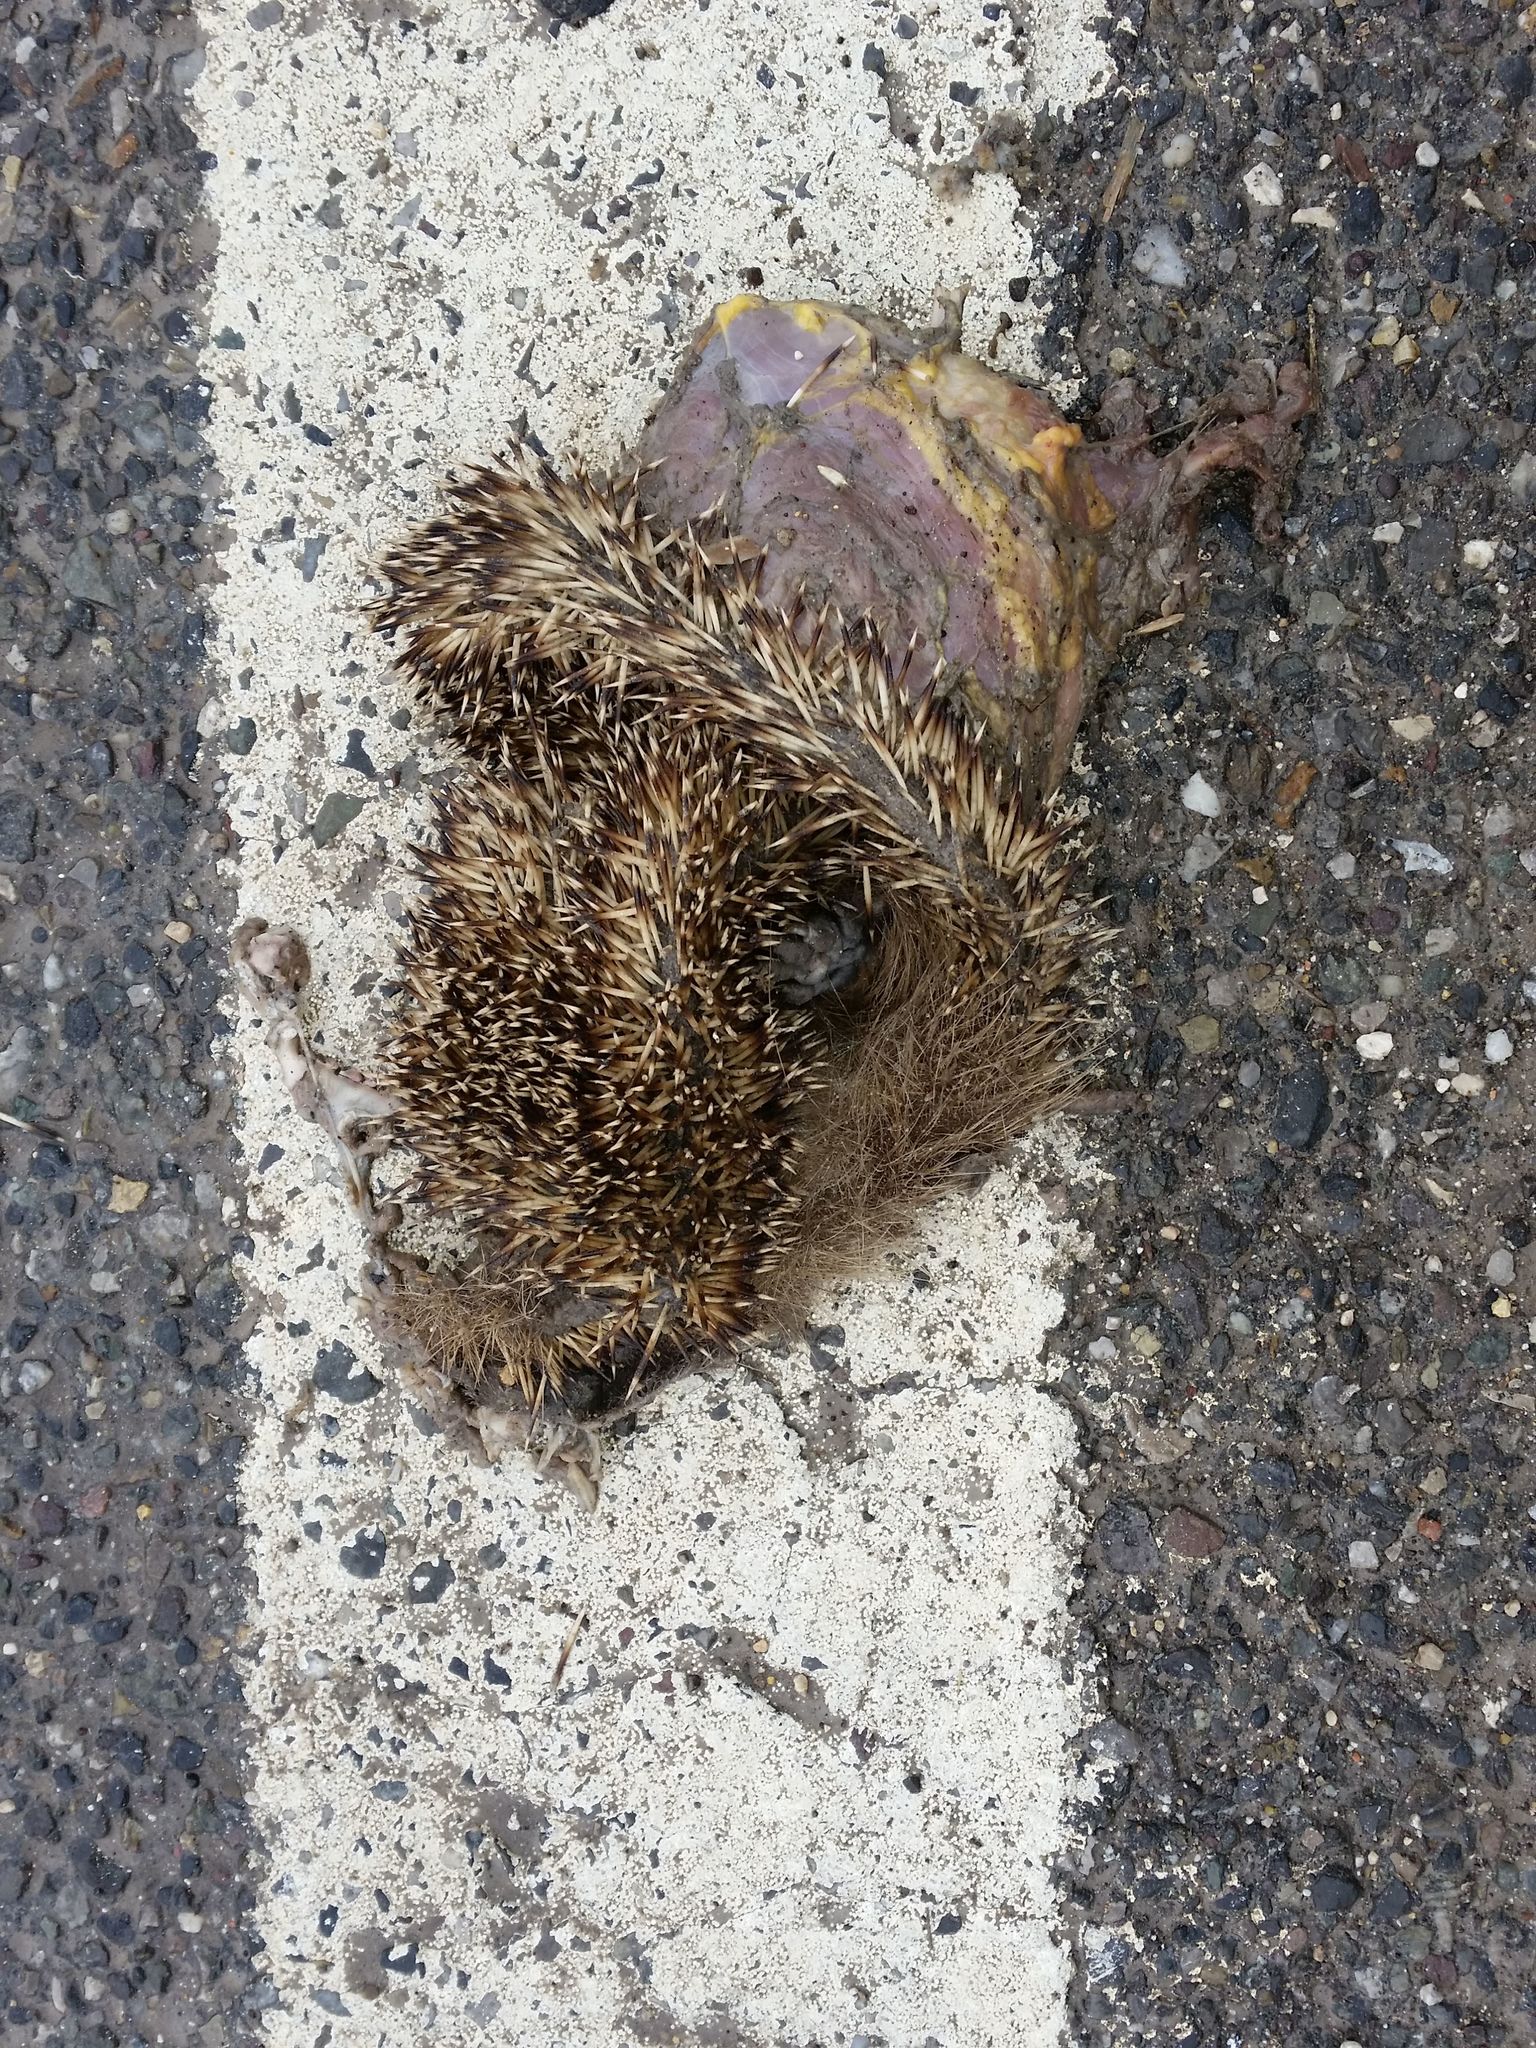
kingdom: Animalia
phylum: Chordata
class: Mammalia
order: Erinaceomorpha
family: Erinaceidae
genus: Erinaceus
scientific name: Erinaceus europaeus
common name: West european hedgehog
